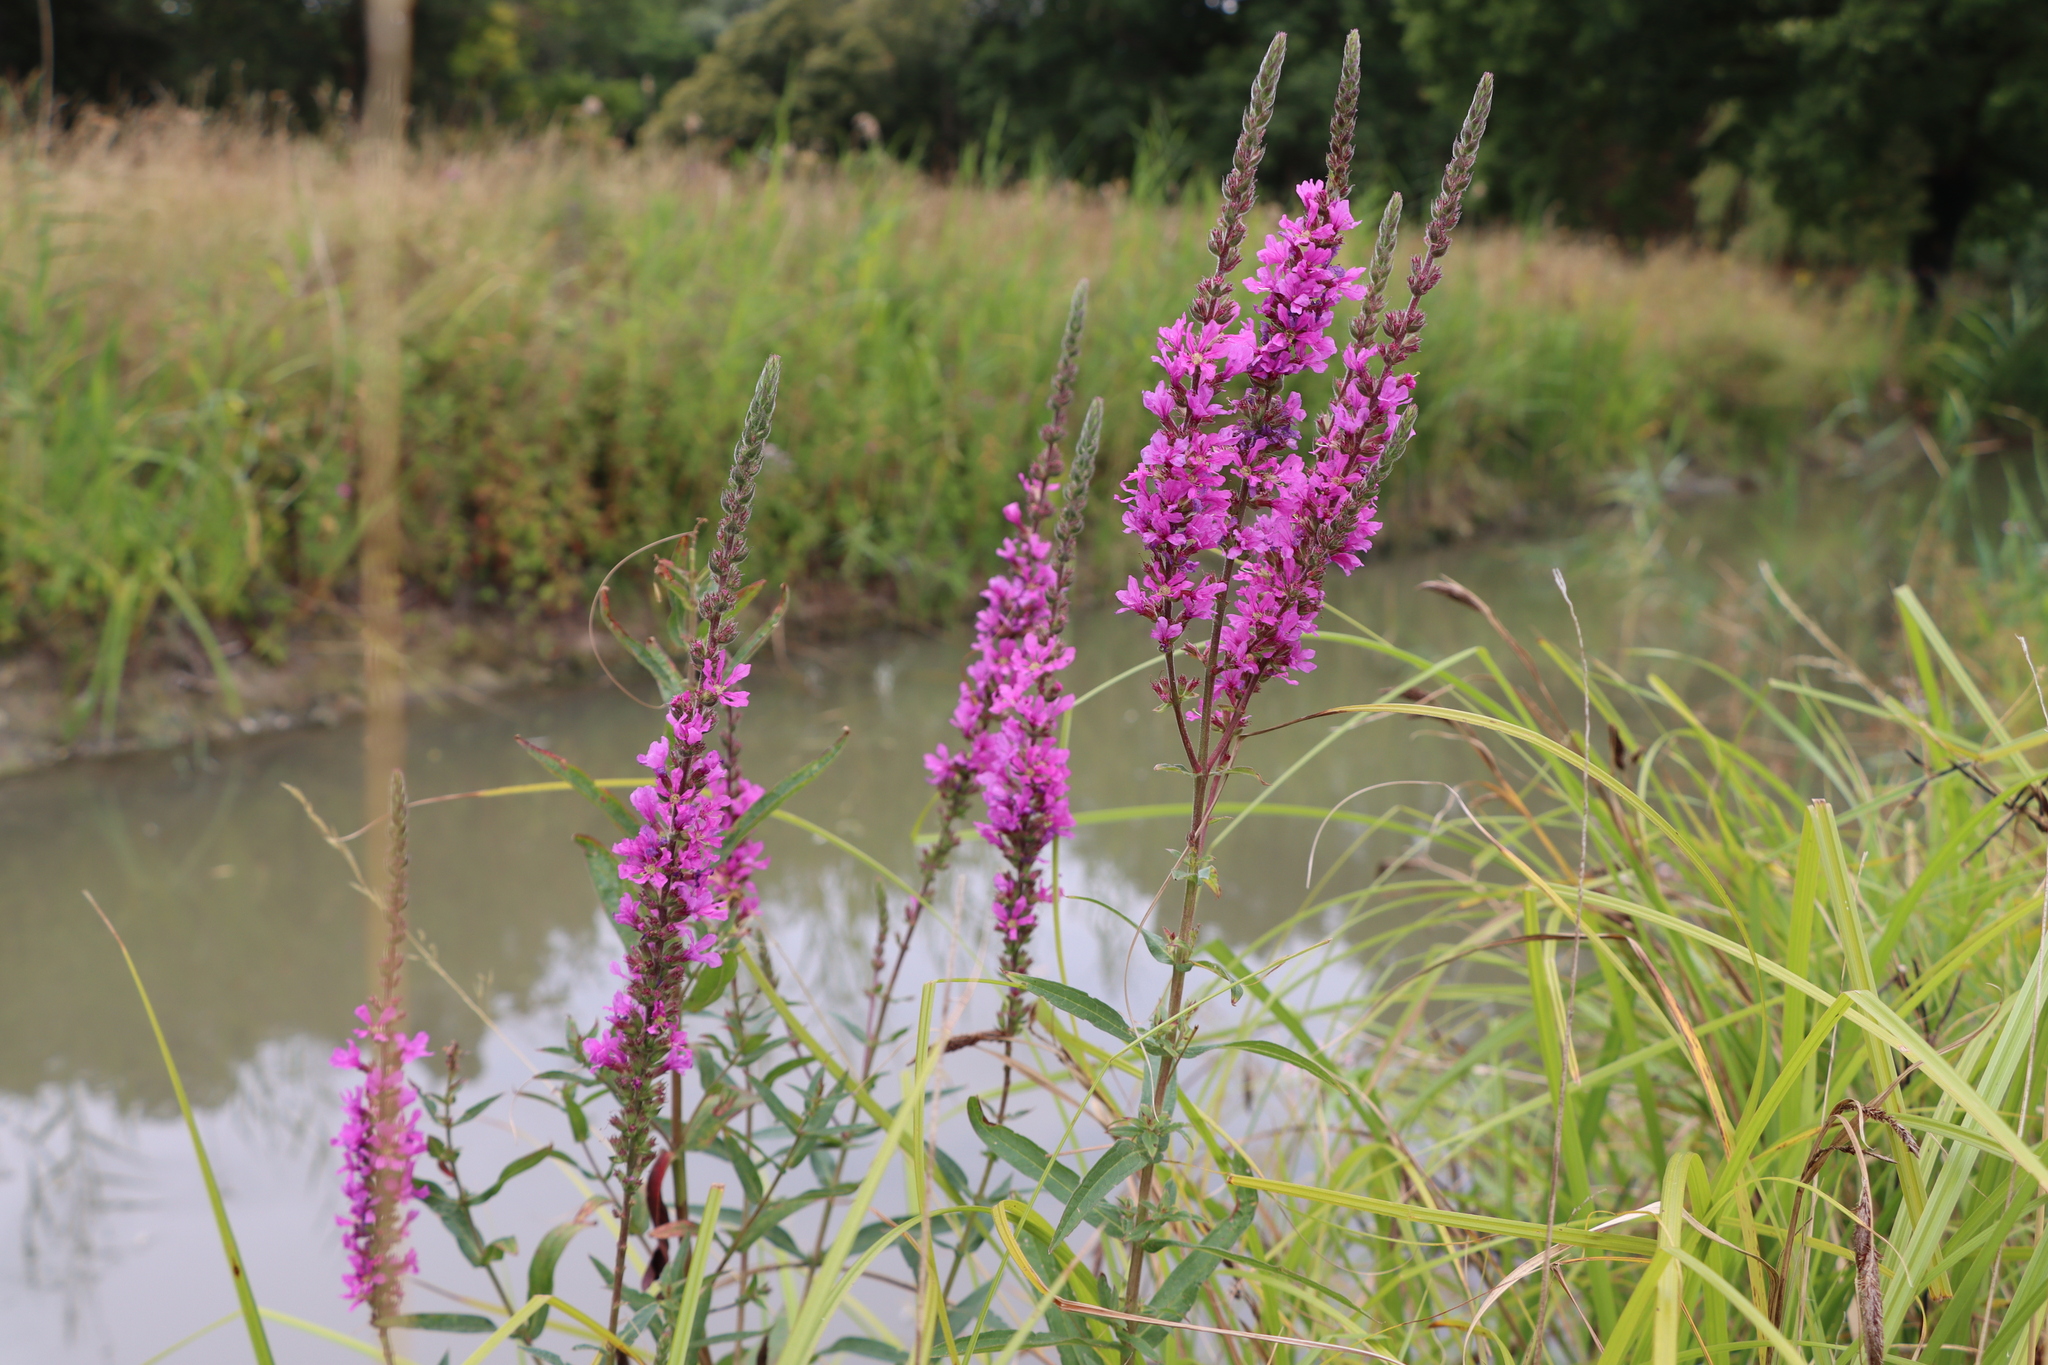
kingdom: Plantae
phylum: Tracheophyta
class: Magnoliopsida
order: Myrtales
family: Lythraceae
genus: Lythrum
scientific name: Lythrum salicaria
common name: Purple loosestrife
